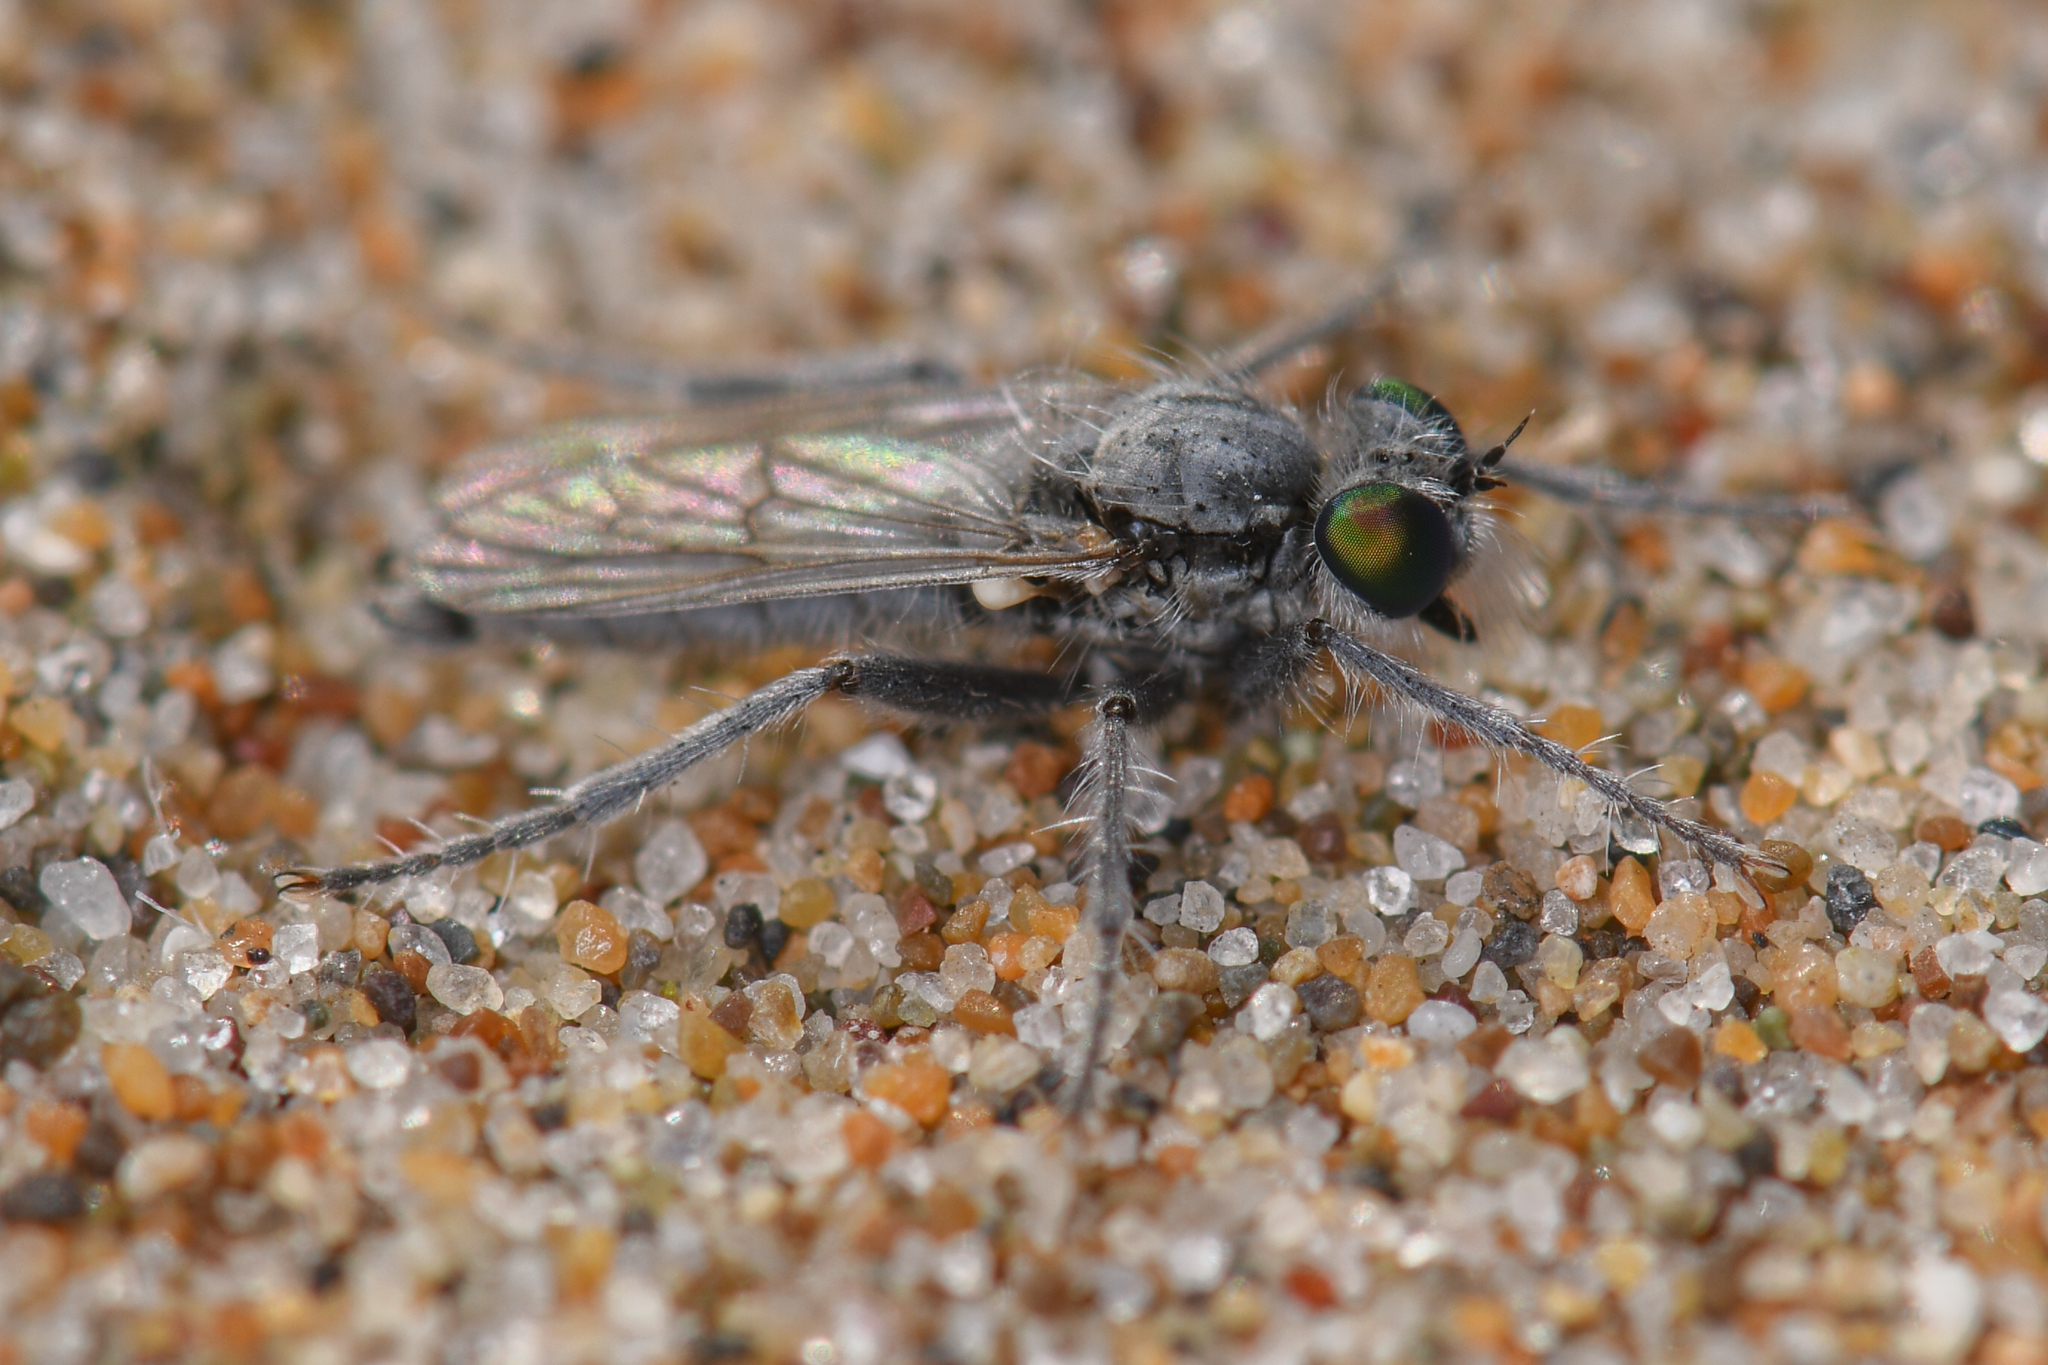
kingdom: Animalia
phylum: Arthropoda
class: Insecta
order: Diptera
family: Asilidae
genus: Lasiopogon
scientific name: Lasiopogon littoris
